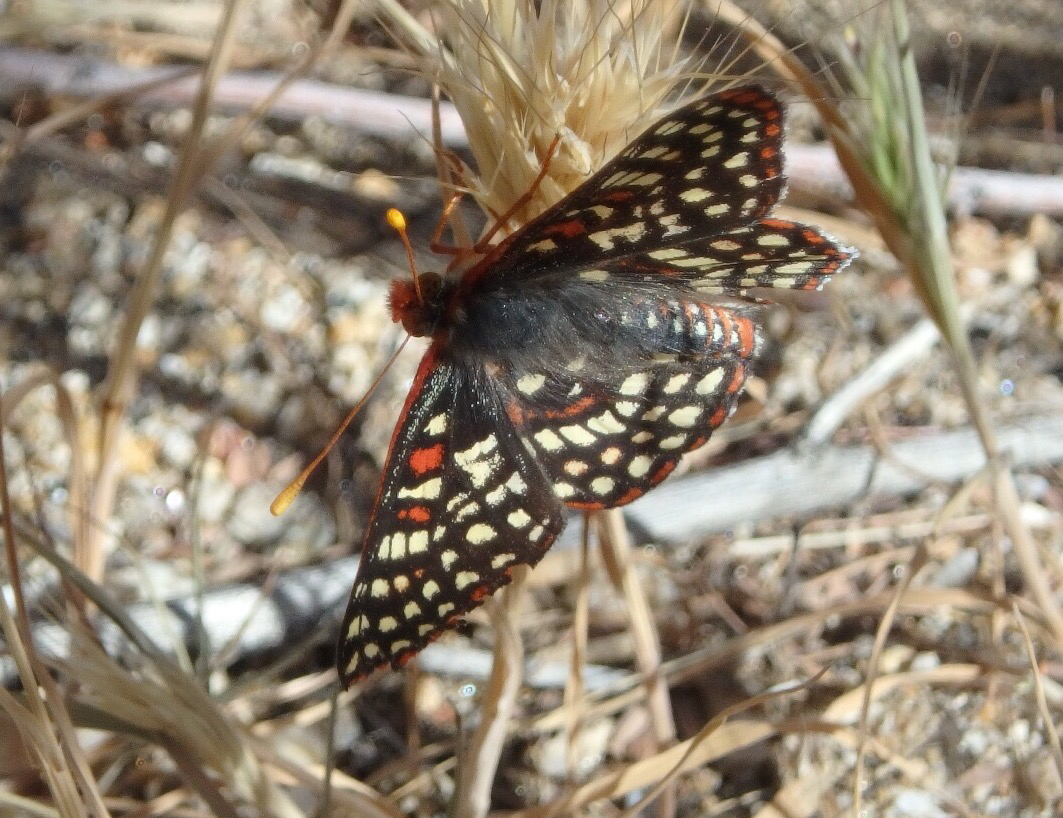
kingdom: Animalia
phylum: Arthropoda
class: Insecta
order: Lepidoptera
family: Nymphalidae
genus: Occidryas
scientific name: Occidryas chalcedona
